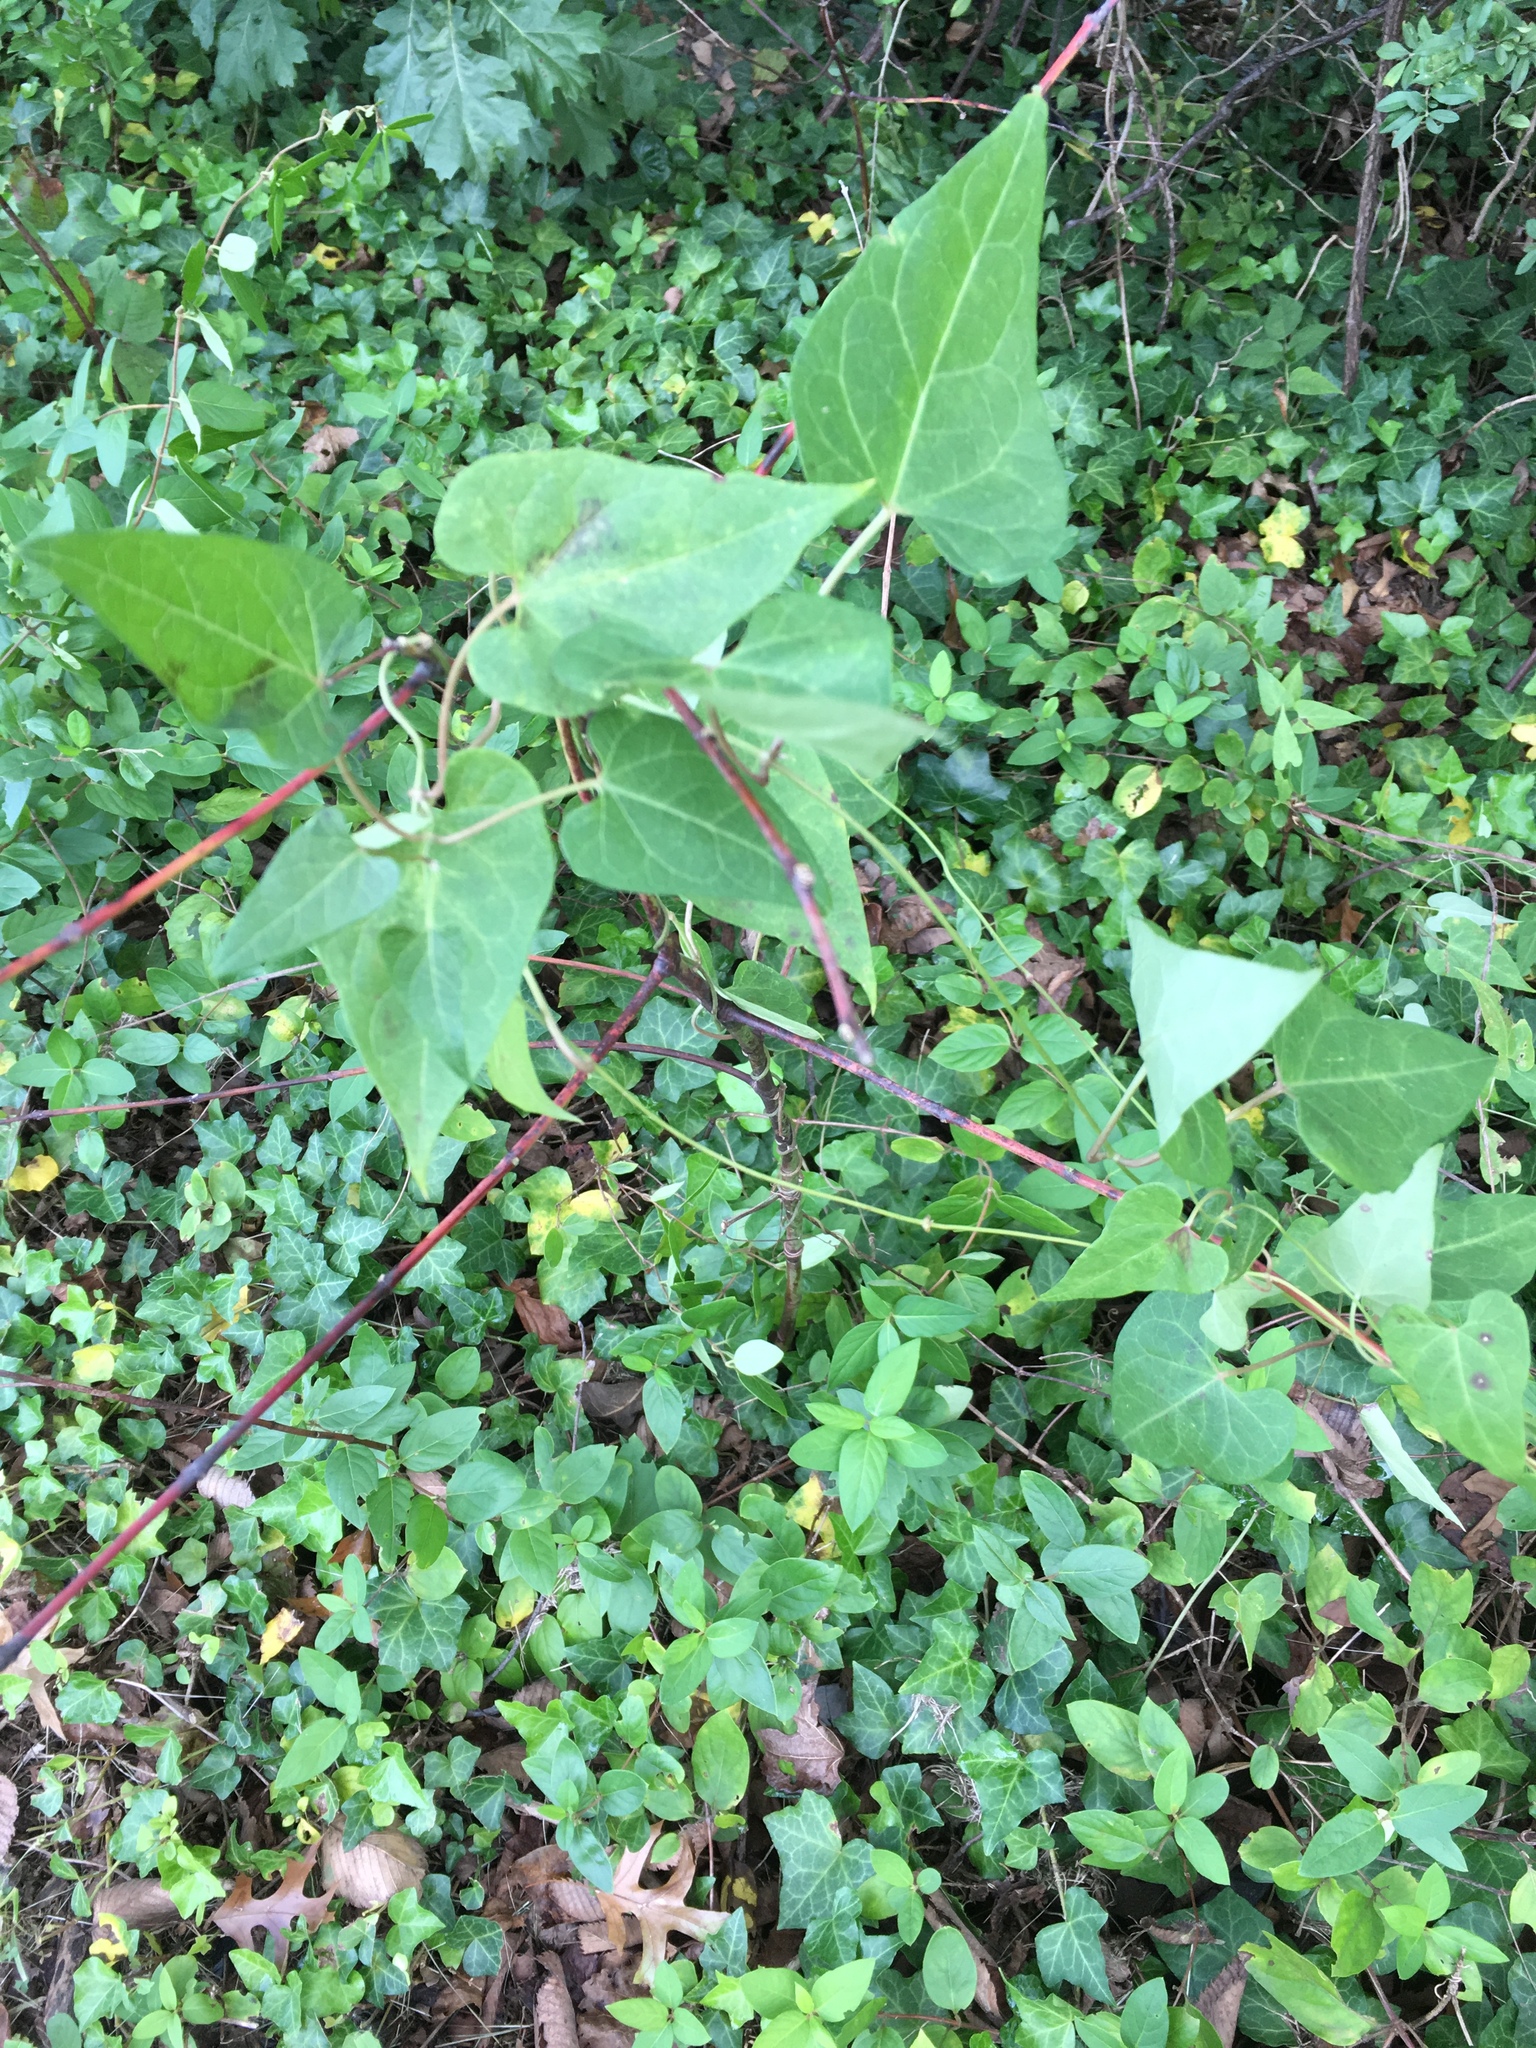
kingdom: Plantae
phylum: Tracheophyta
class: Magnoliopsida
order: Gentianales
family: Apocynaceae
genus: Cynanchum
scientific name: Cynanchum laeve
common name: Sandvine
